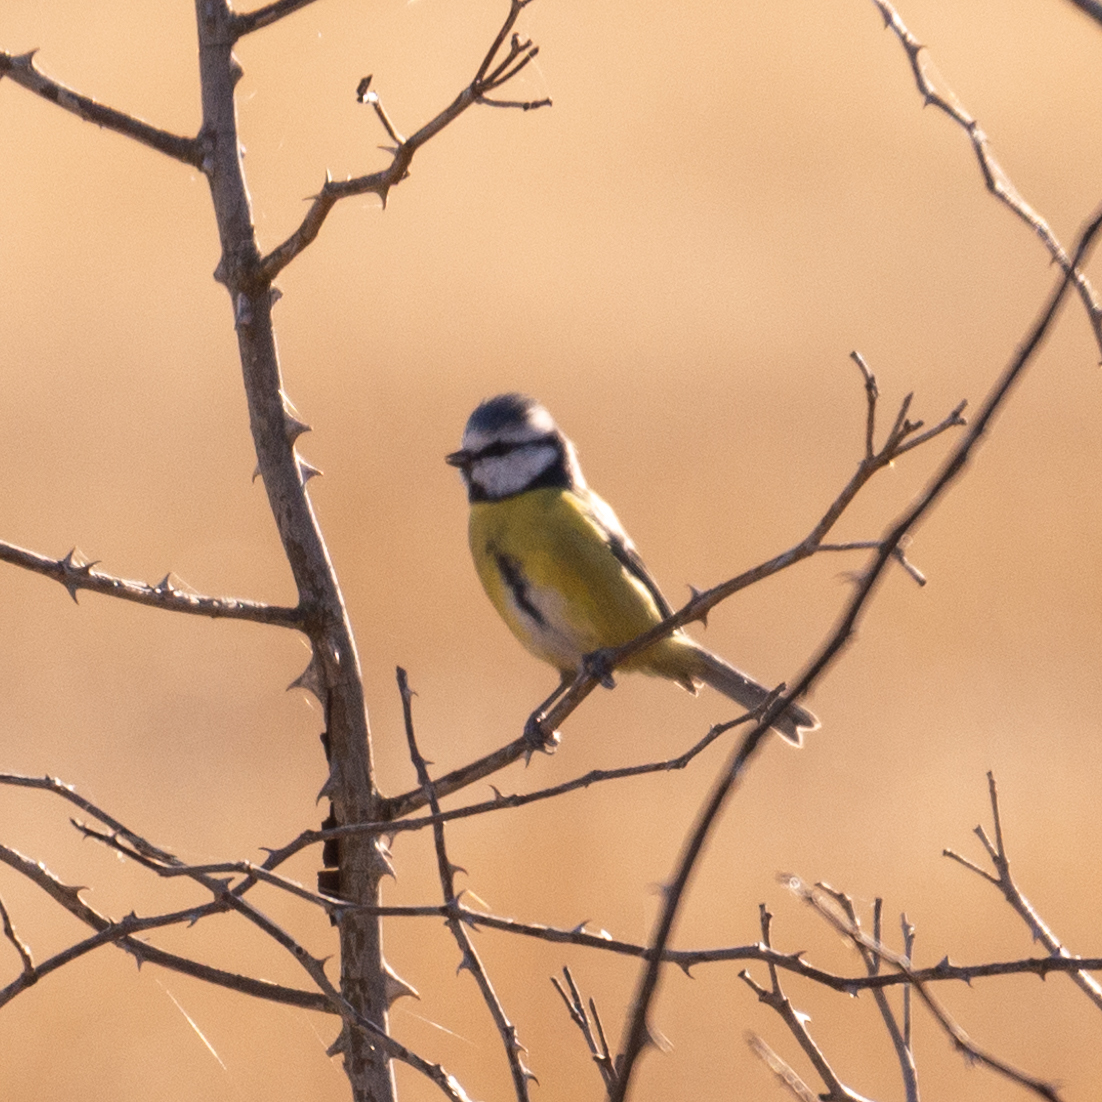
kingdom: Animalia
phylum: Chordata
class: Aves
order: Passeriformes
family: Paridae
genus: Cyanistes
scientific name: Cyanistes caeruleus
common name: Eurasian blue tit
